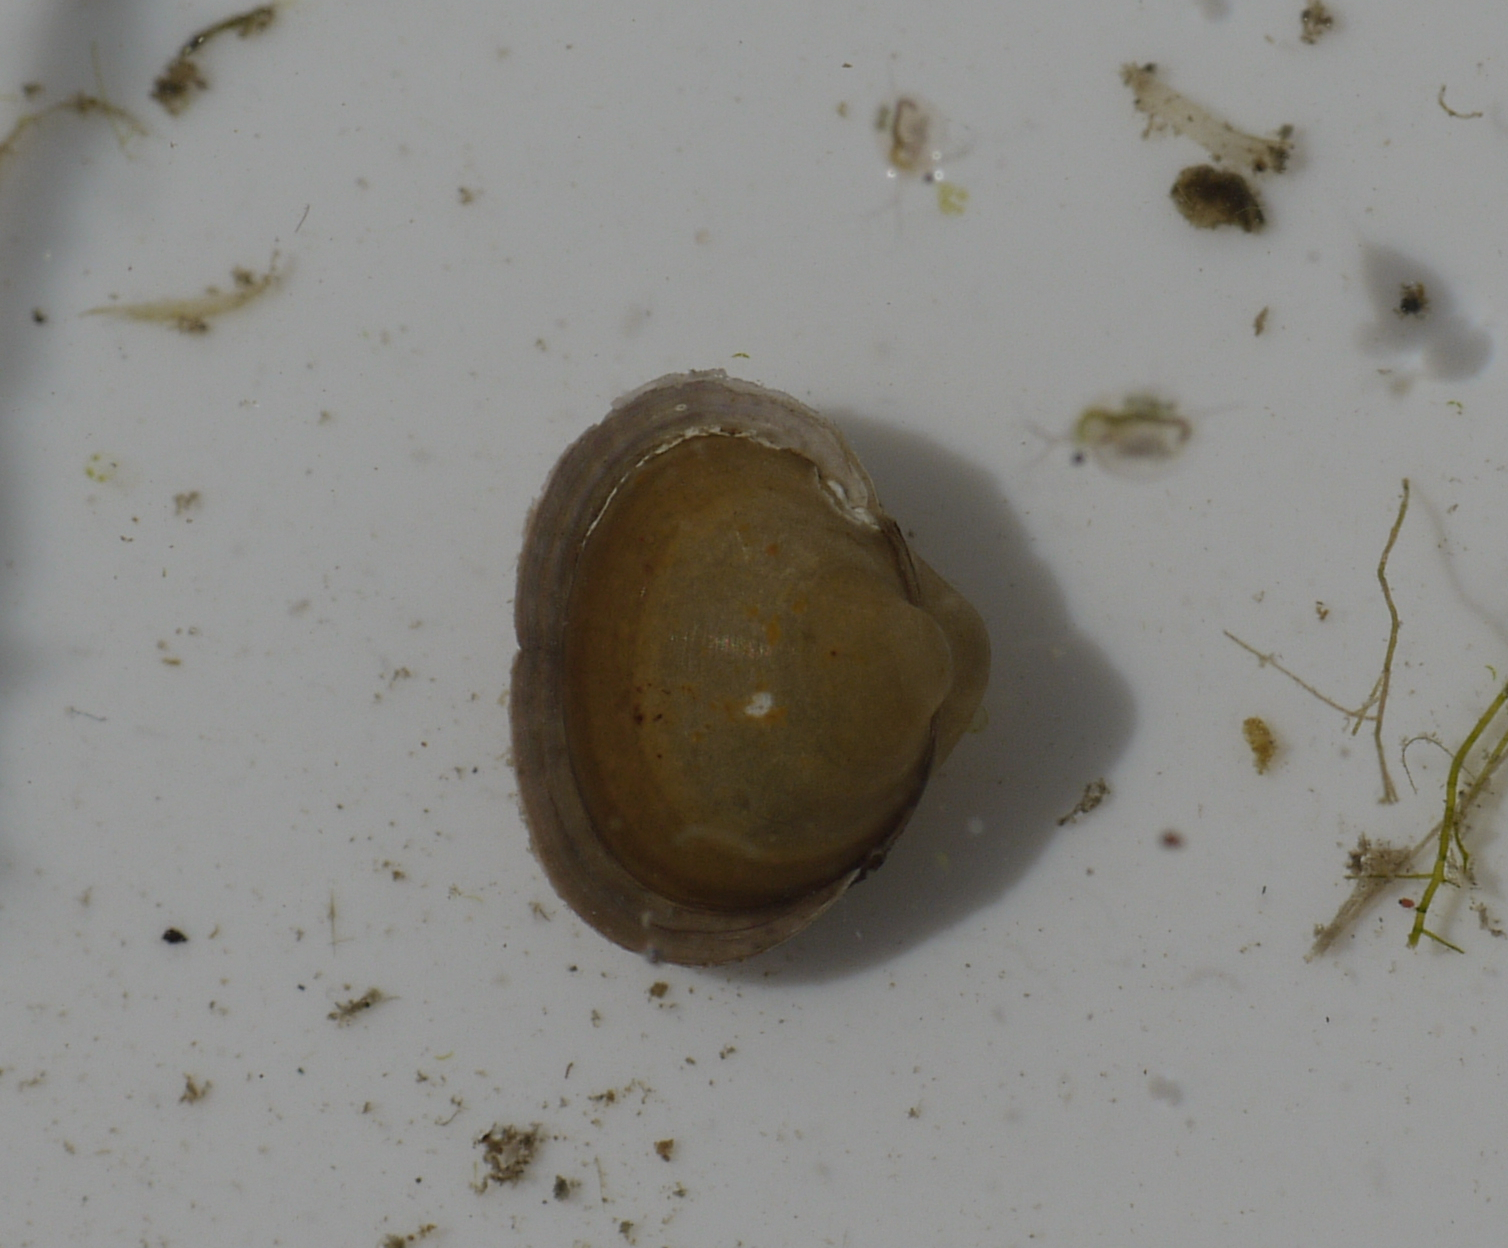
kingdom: Animalia
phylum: Mollusca
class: Bivalvia
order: Sphaeriida
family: Sphaeriidae
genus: Musculium
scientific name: Musculium lacustre
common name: Lake fingernailclam
